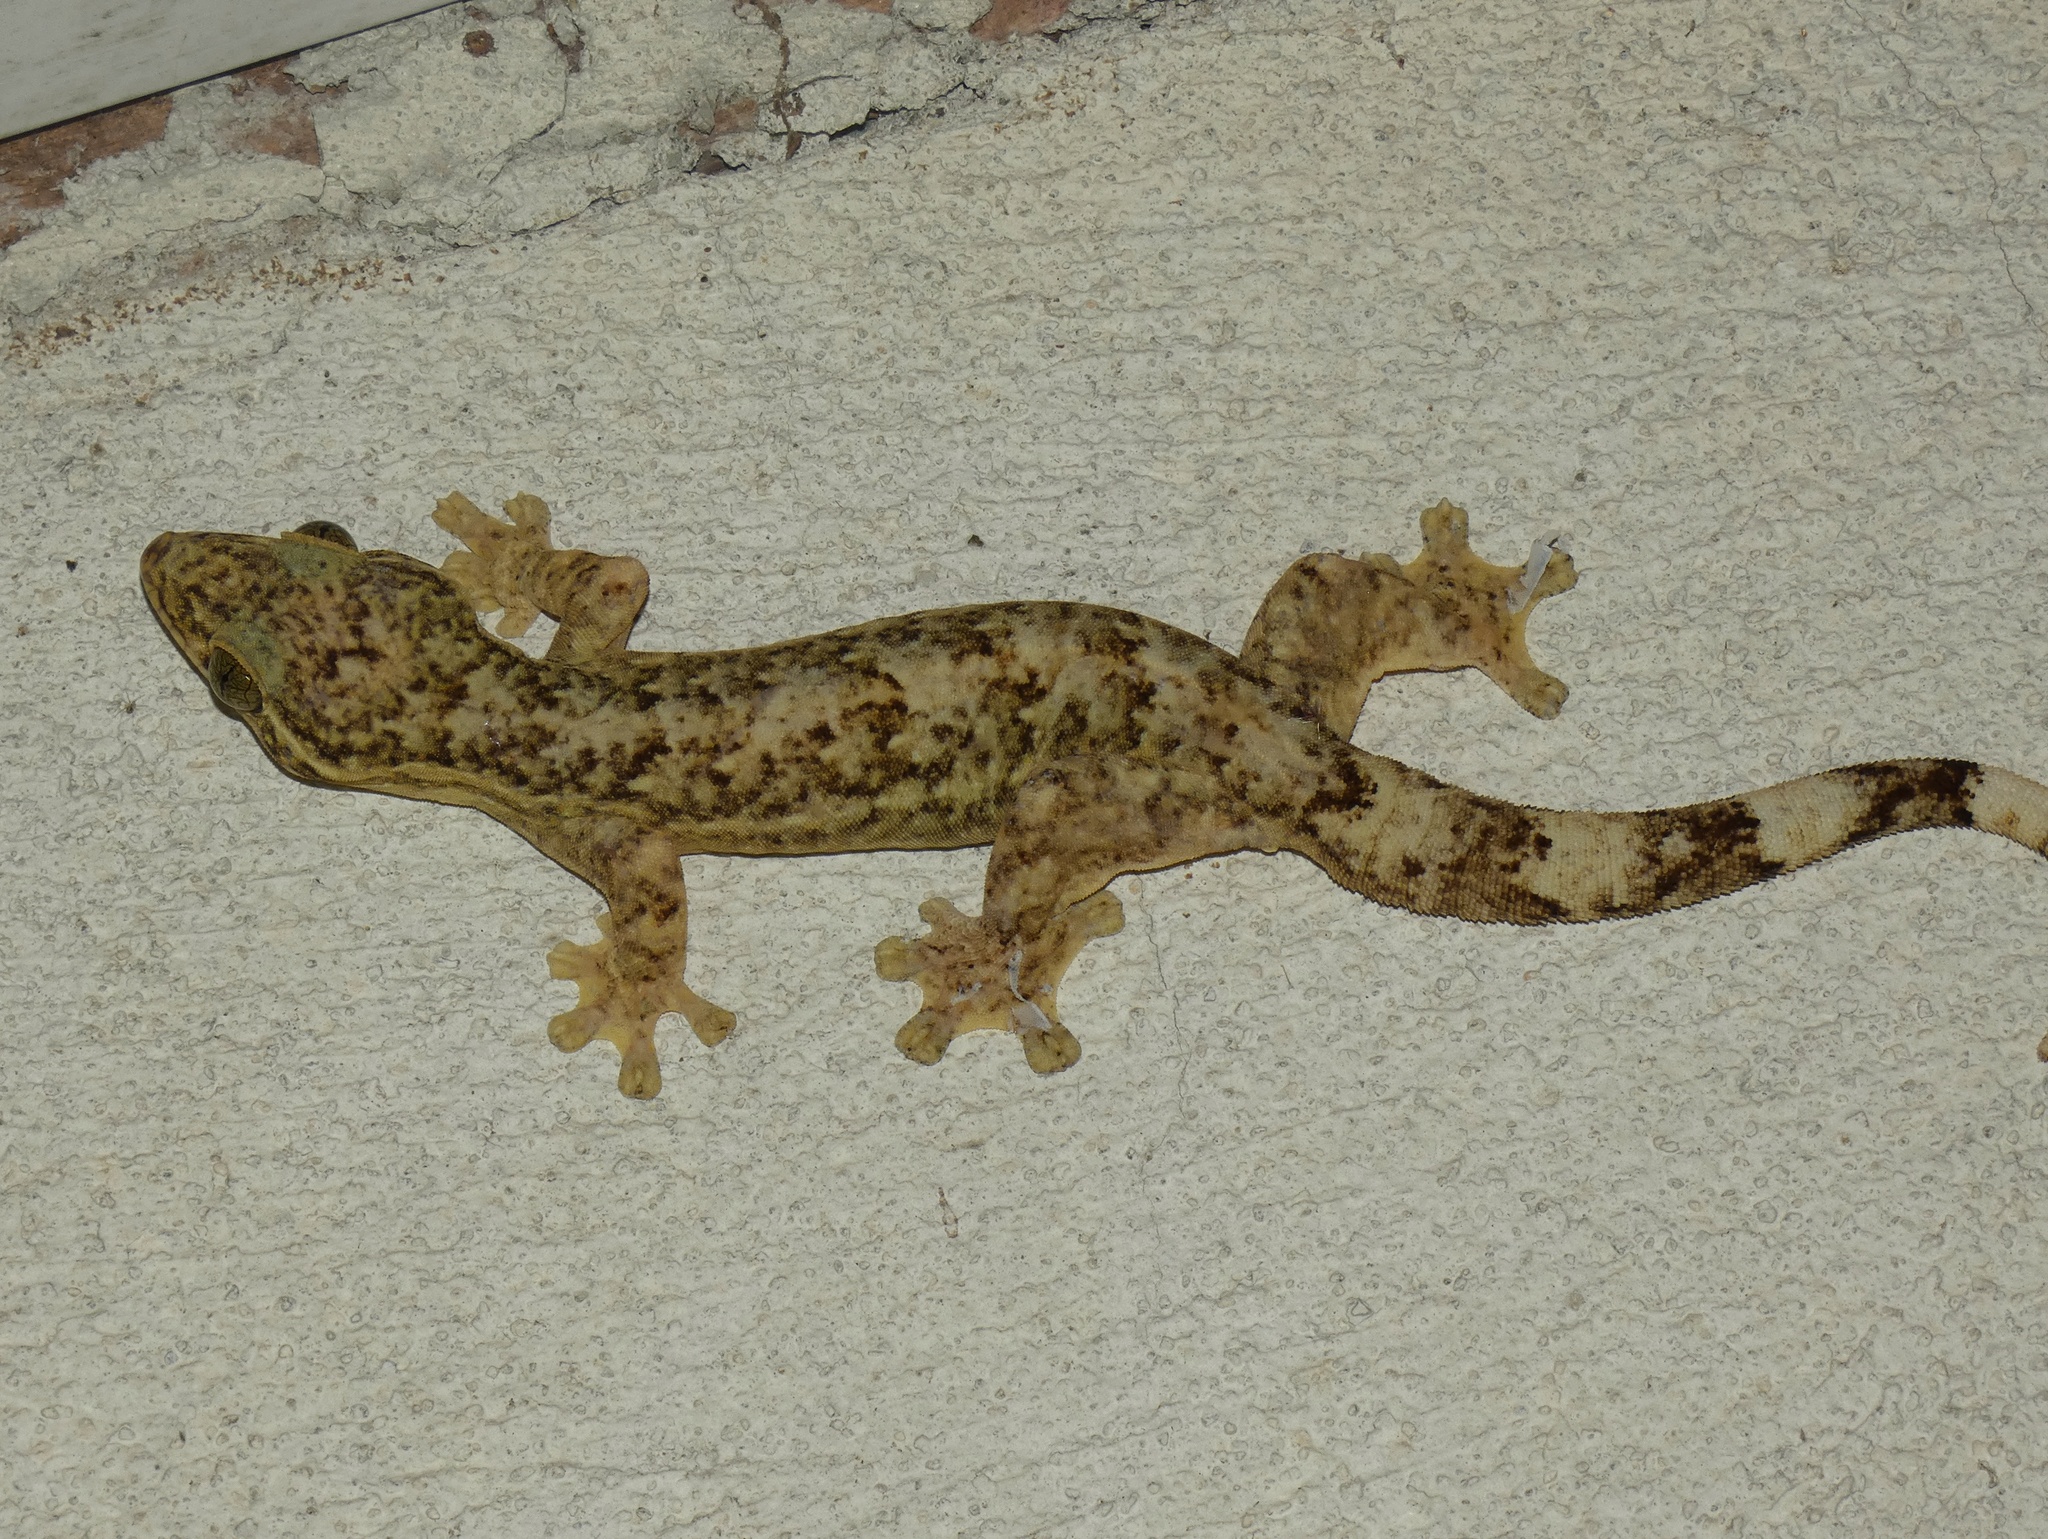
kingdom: Animalia
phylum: Chordata
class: Squamata
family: Phyllodactylidae
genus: Thecadactylus
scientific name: Thecadactylus rapicauda
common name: Turnip-tailed gecko
